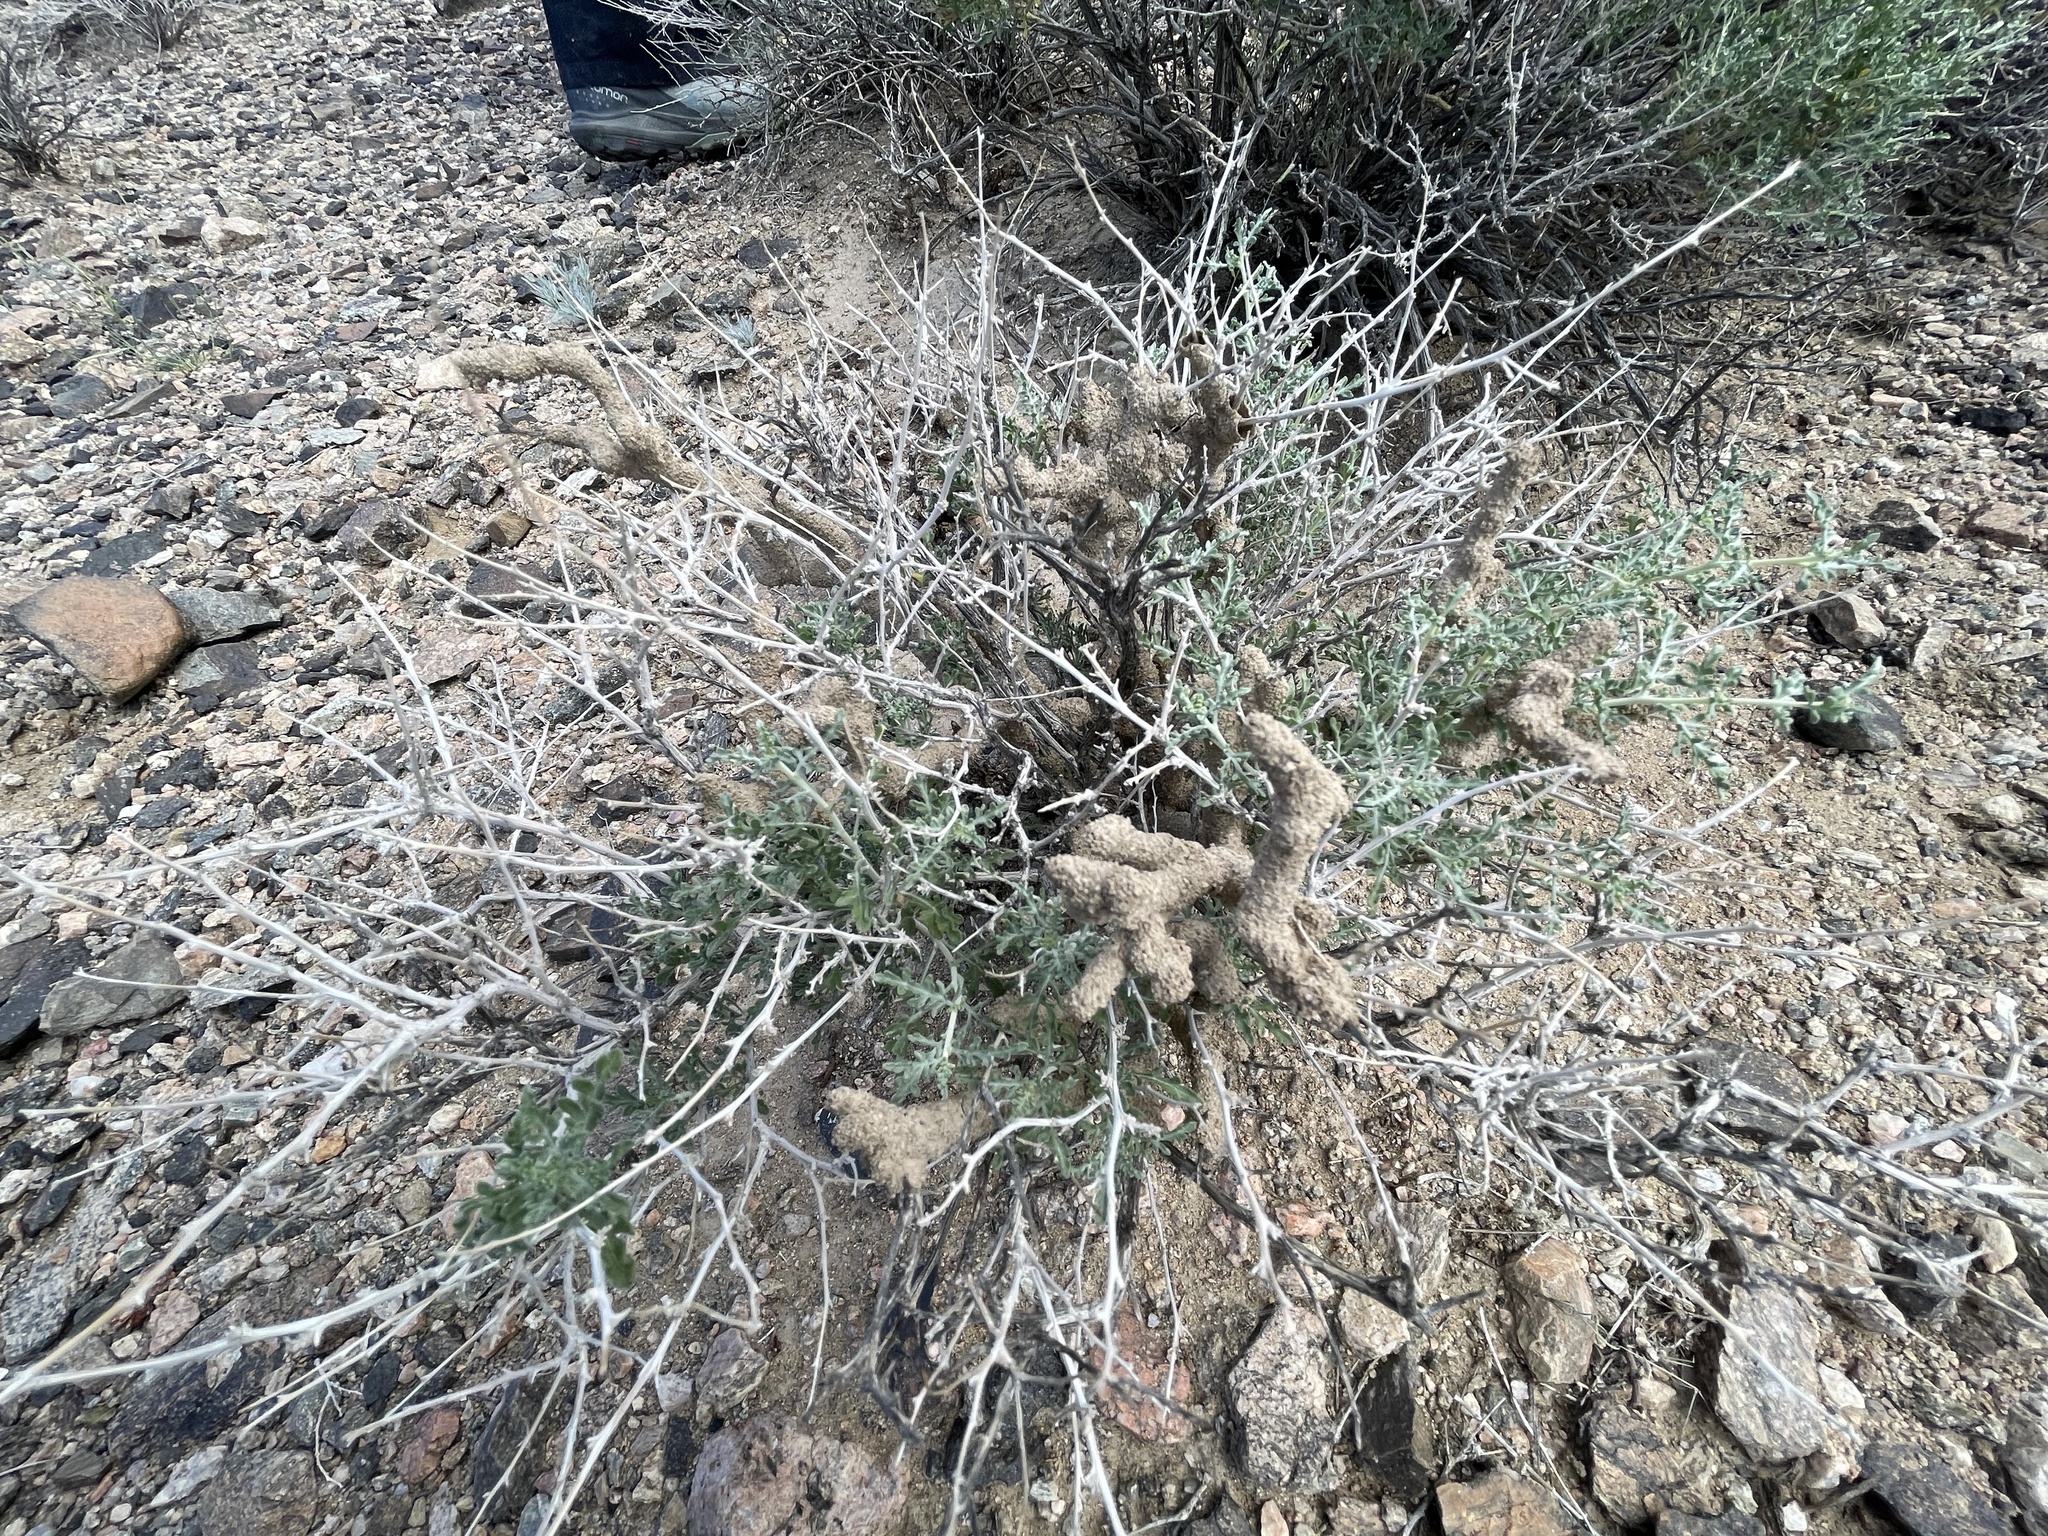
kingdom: Plantae
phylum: Tracheophyta
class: Magnoliopsida
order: Asterales
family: Asteraceae
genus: Ambrosia
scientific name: Ambrosia dumosa
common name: Bur-sage
